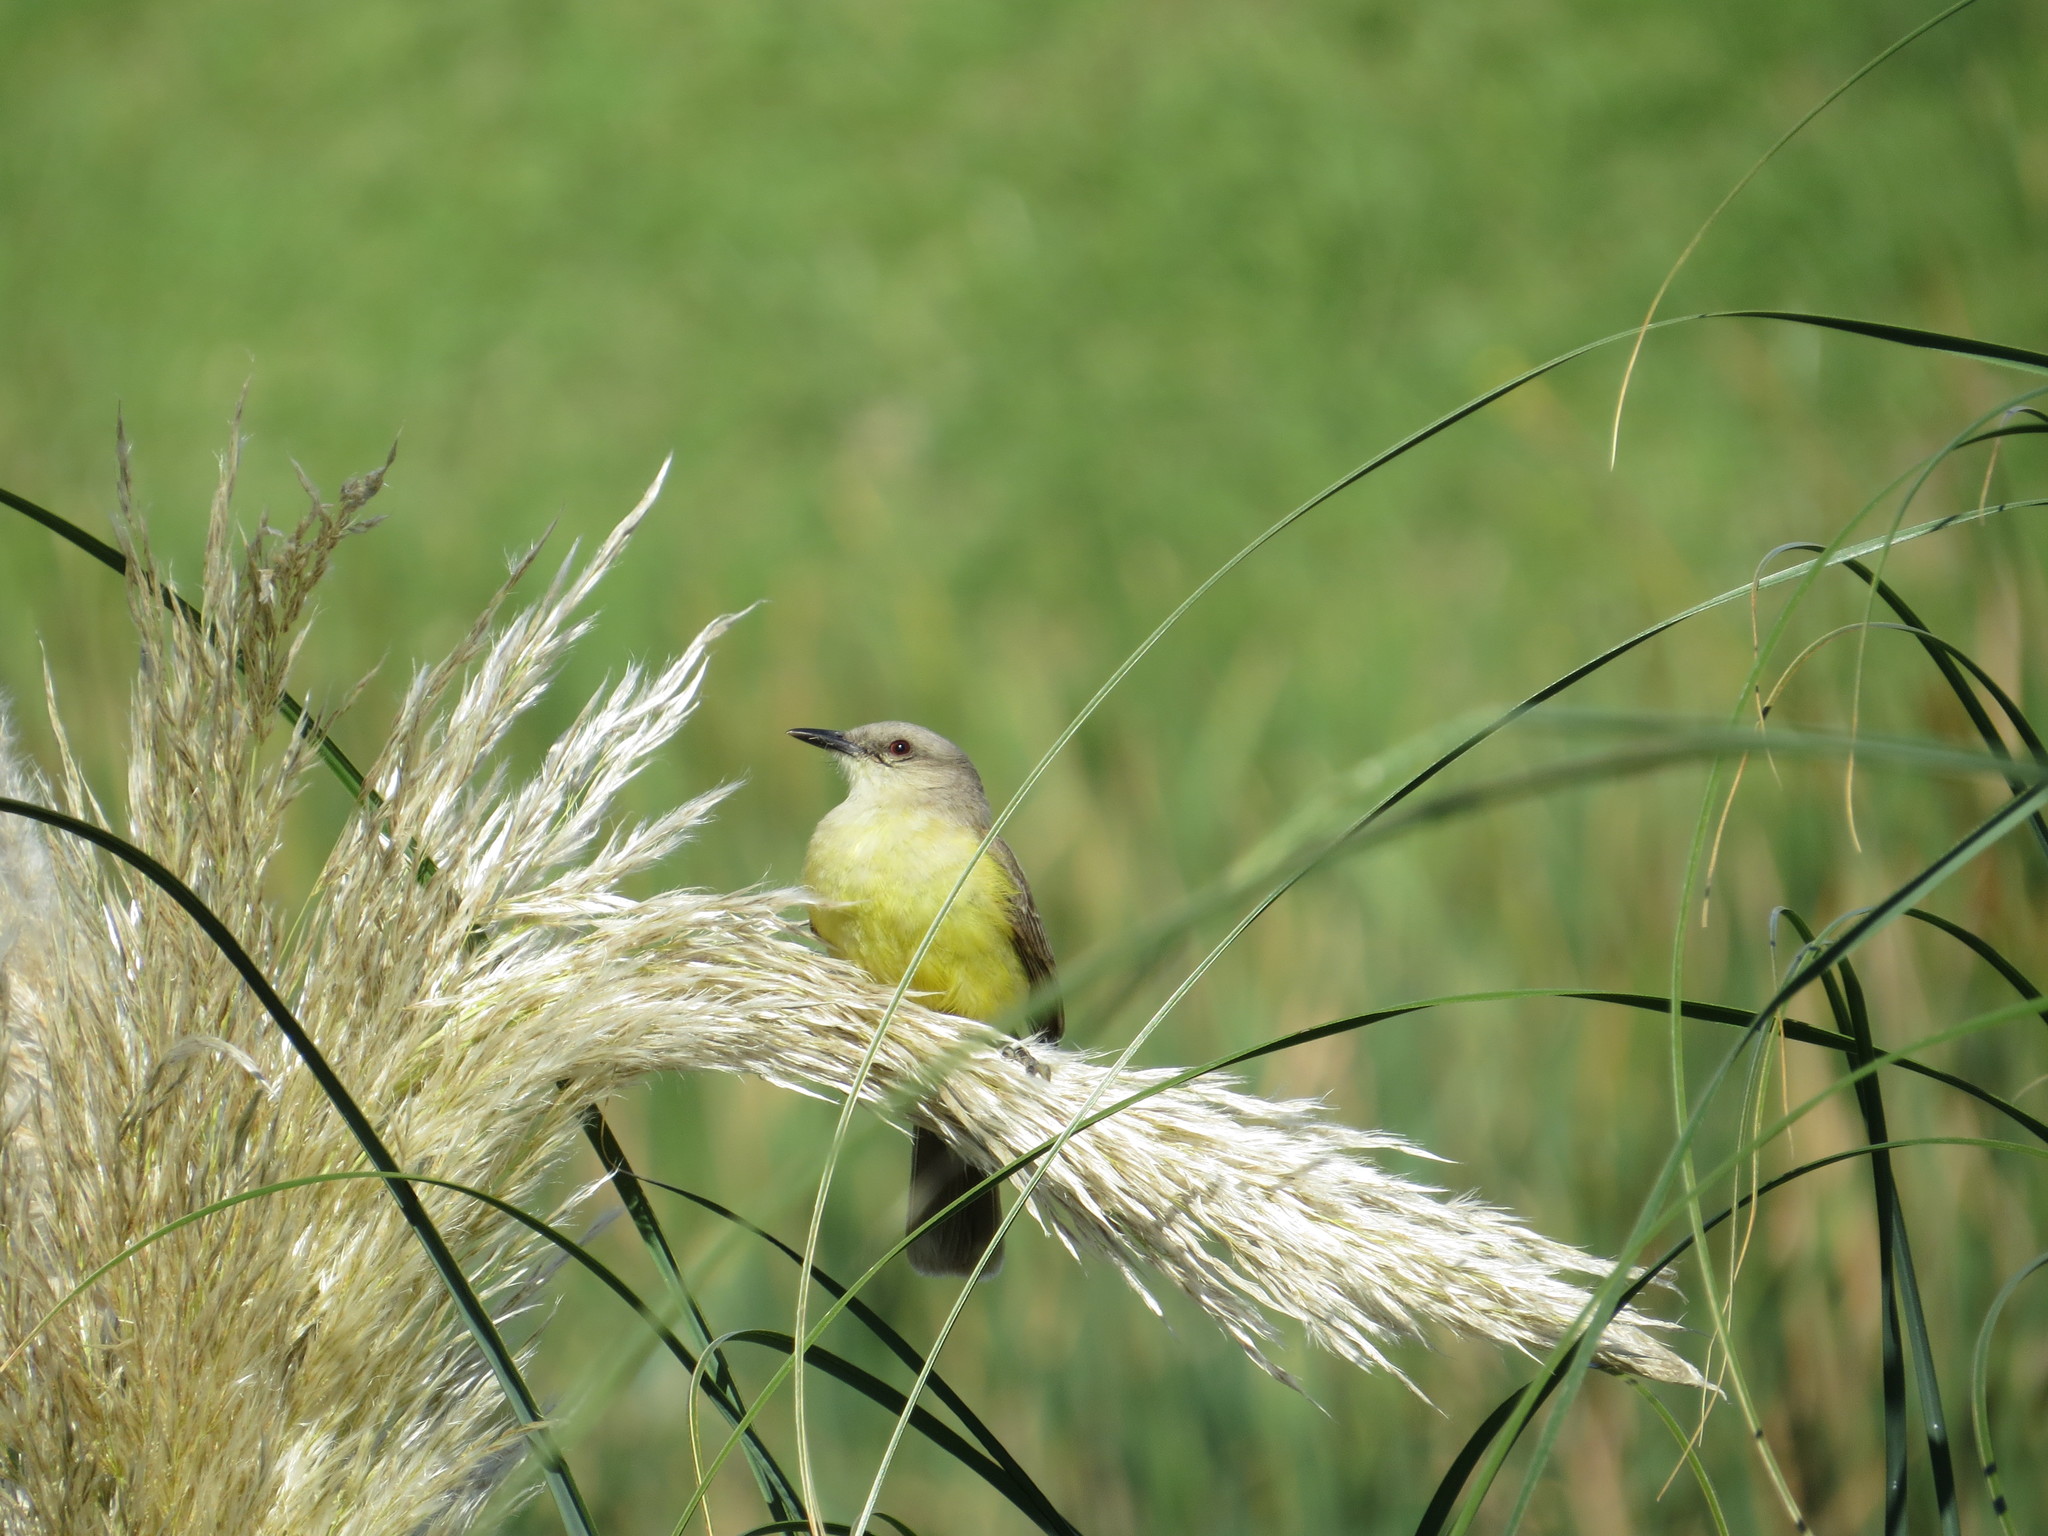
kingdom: Animalia
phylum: Chordata
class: Aves
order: Passeriformes
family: Tyrannidae
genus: Machetornis
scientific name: Machetornis rixosa
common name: Cattle tyrant
